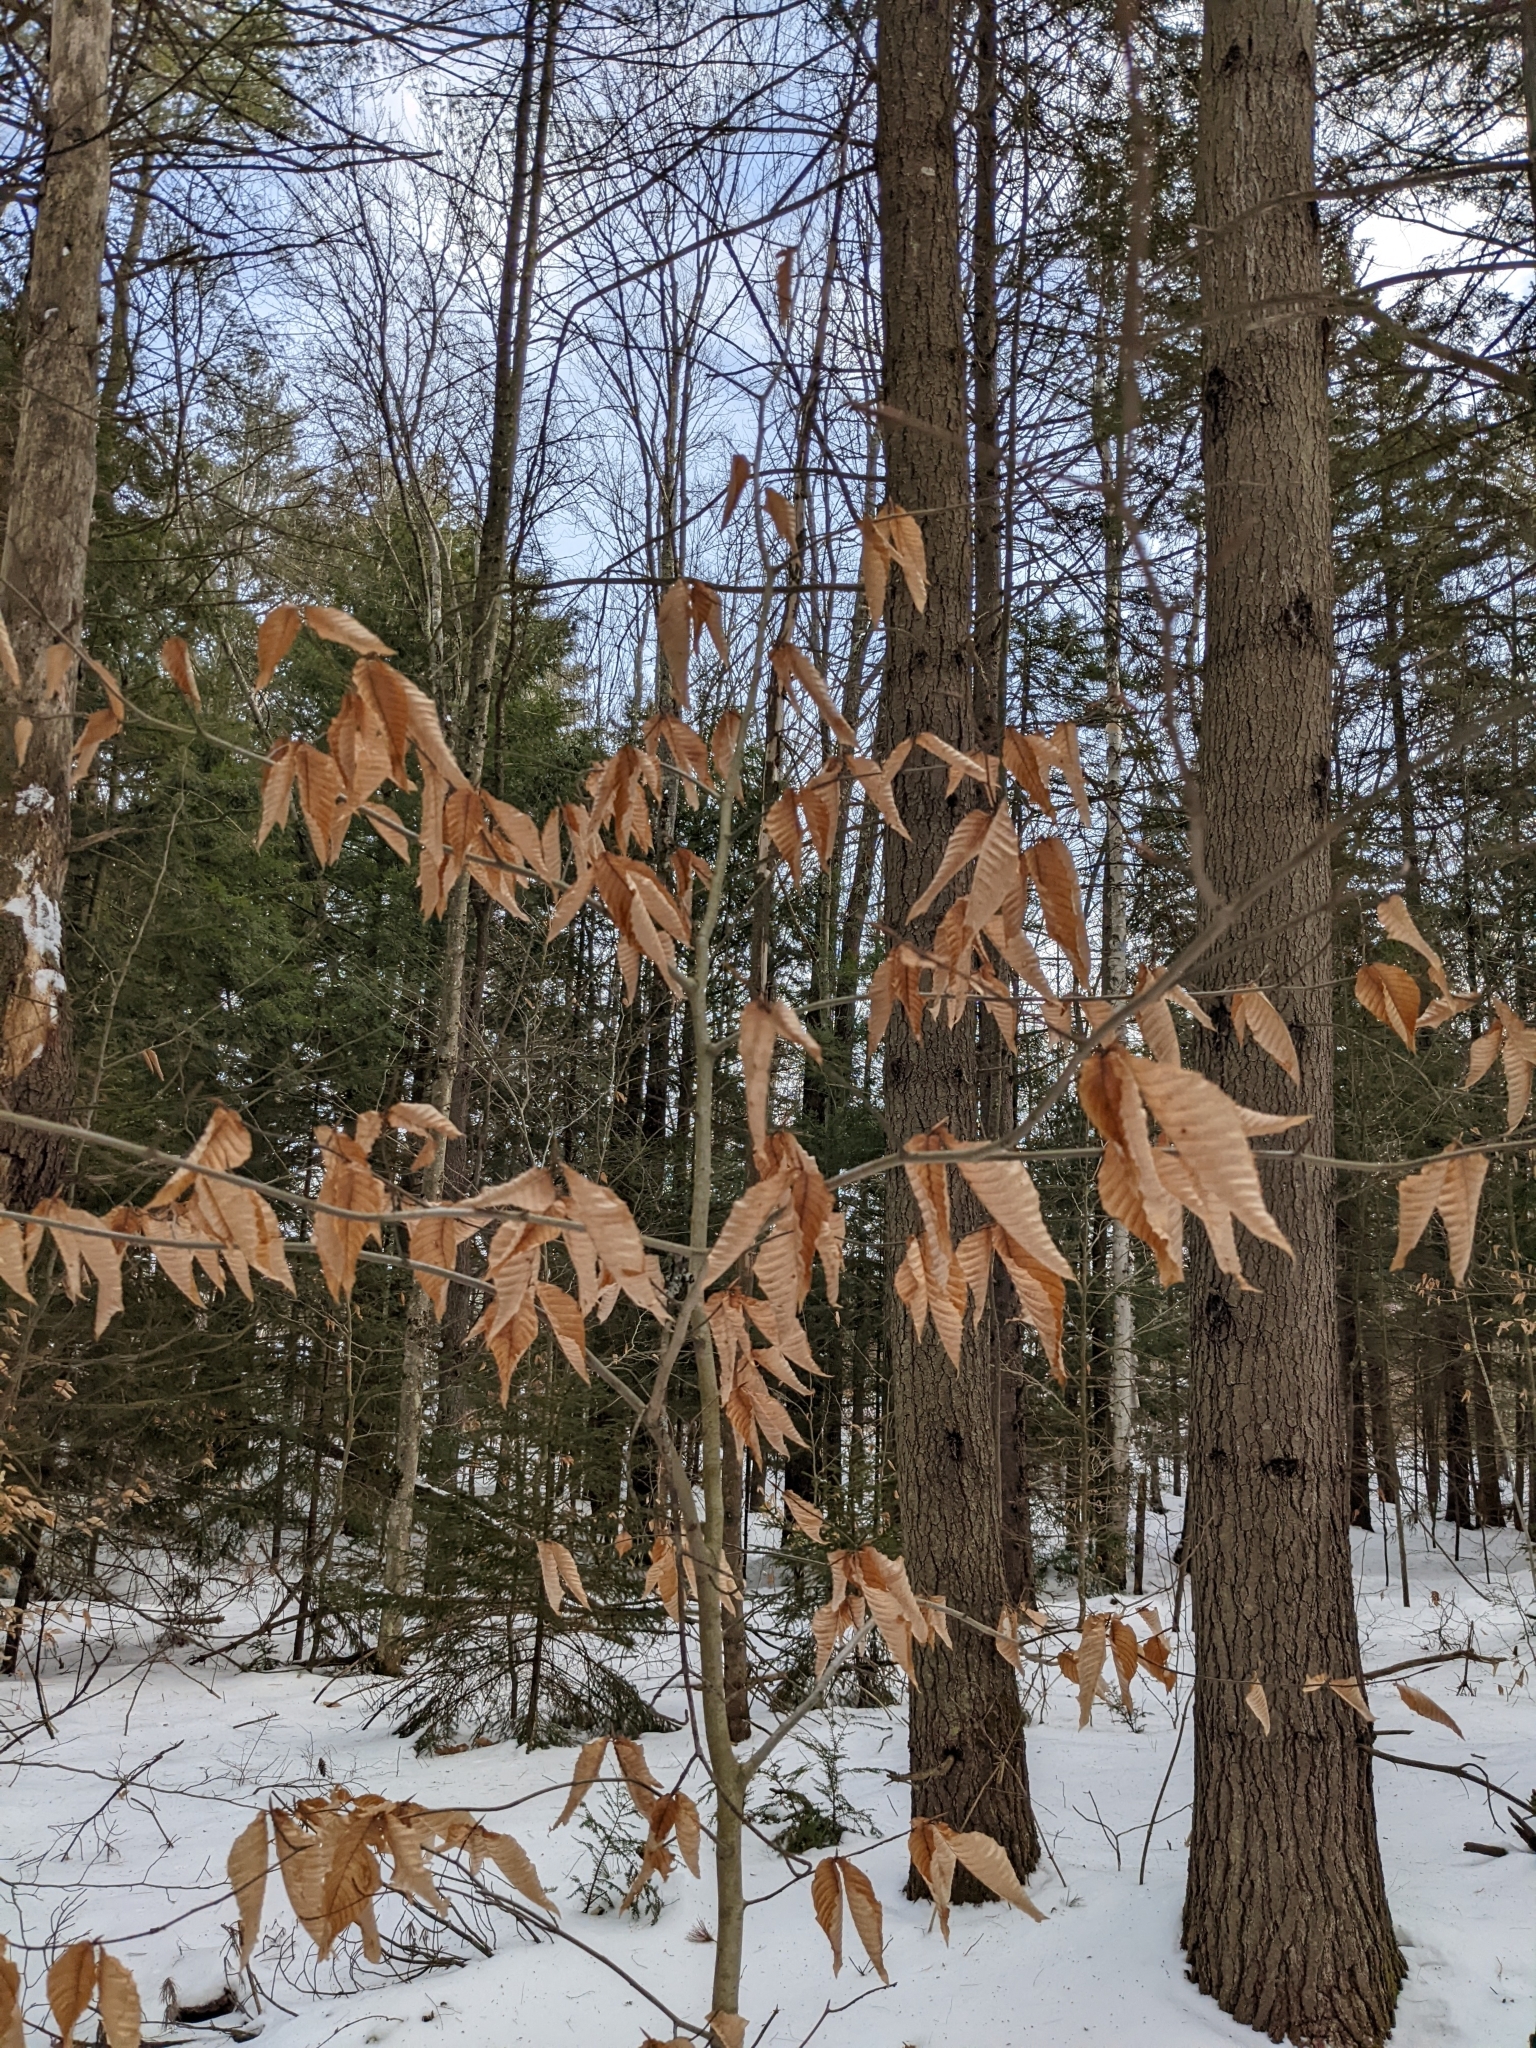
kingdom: Plantae
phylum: Tracheophyta
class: Magnoliopsida
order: Fagales
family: Fagaceae
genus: Fagus
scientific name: Fagus grandifolia
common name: American beech
